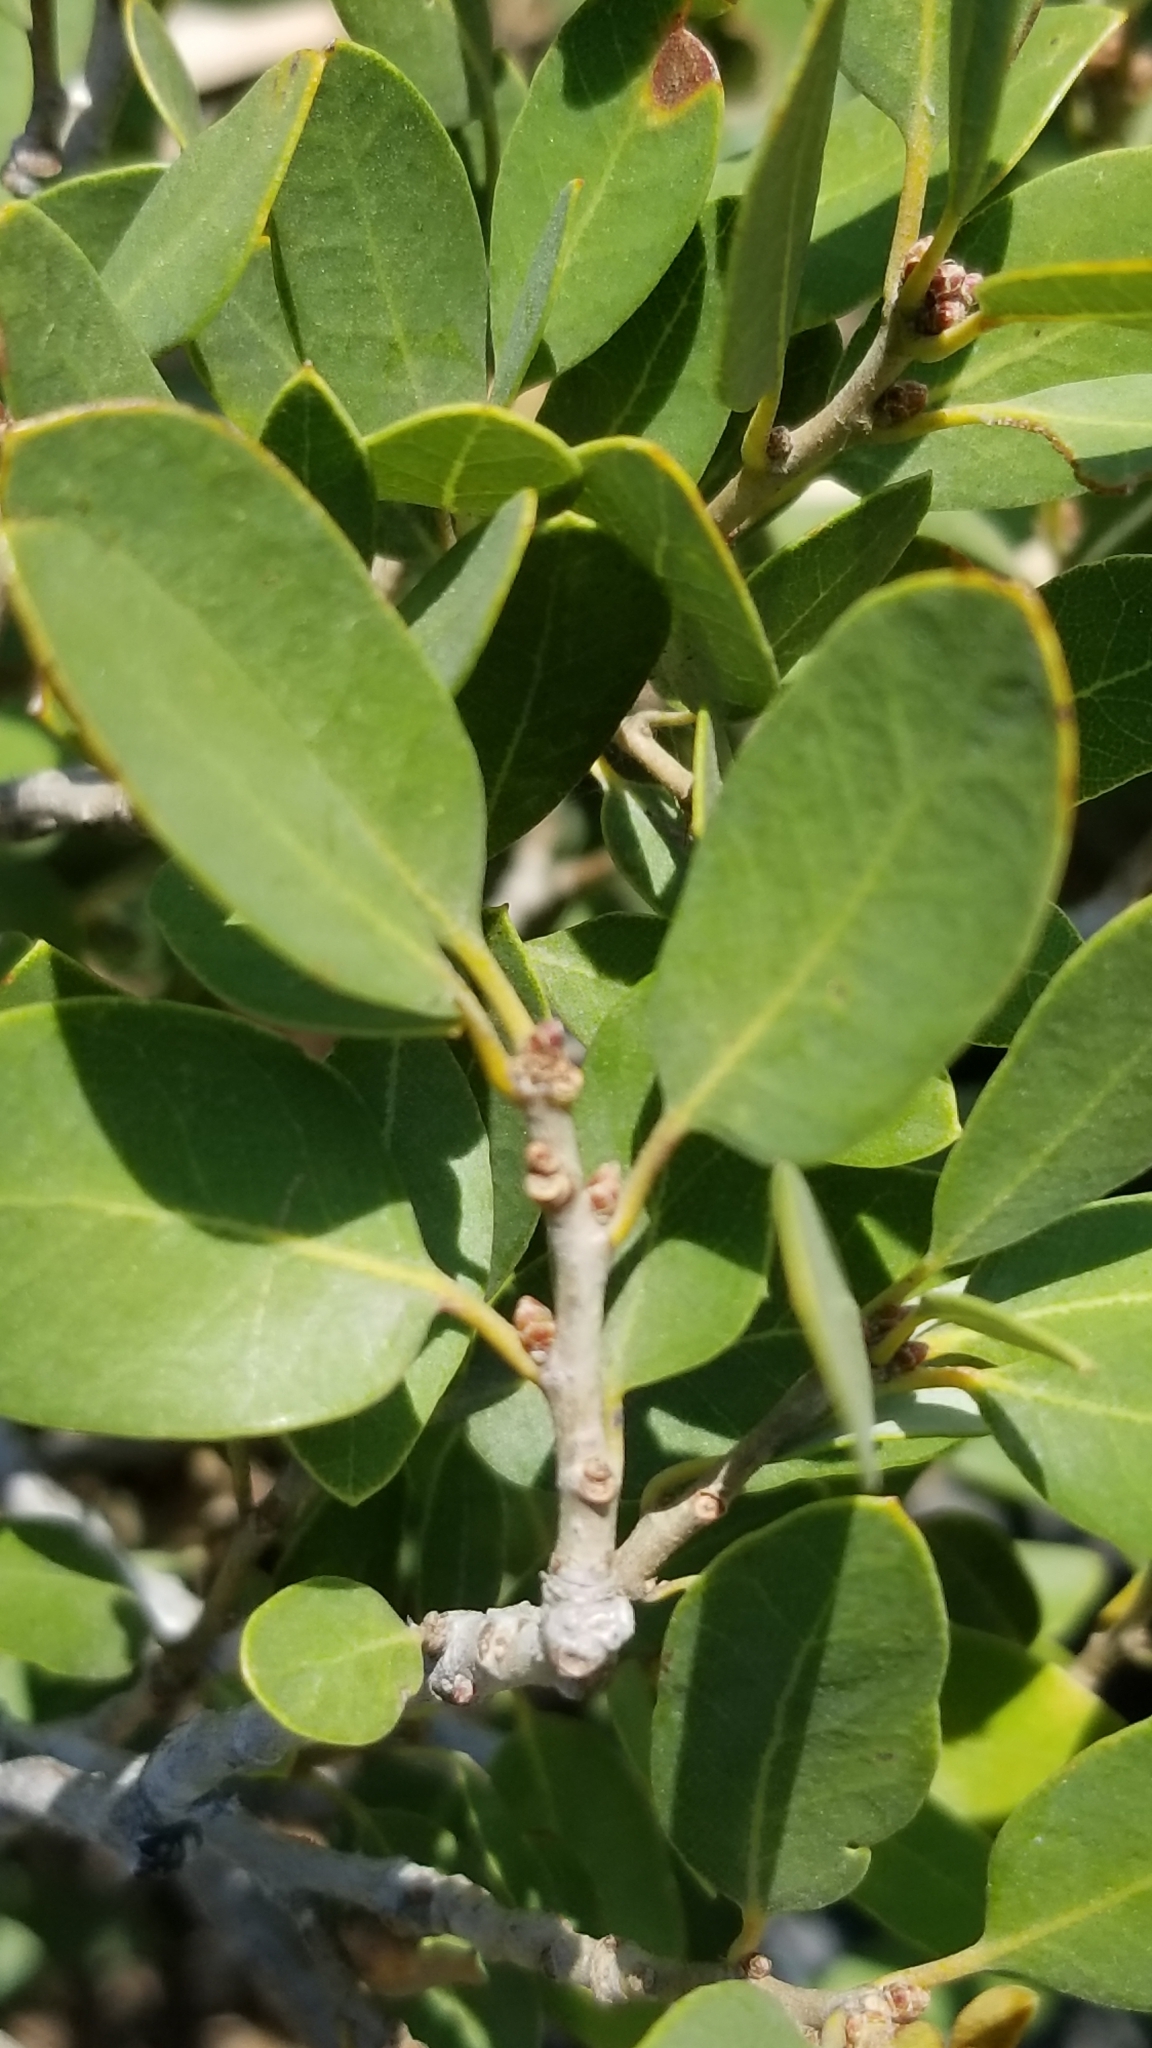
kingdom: Plantae
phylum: Tracheophyta
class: Magnoliopsida
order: Fagales
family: Fagaceae
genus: Quercus
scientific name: Quercus vacciniifolia
